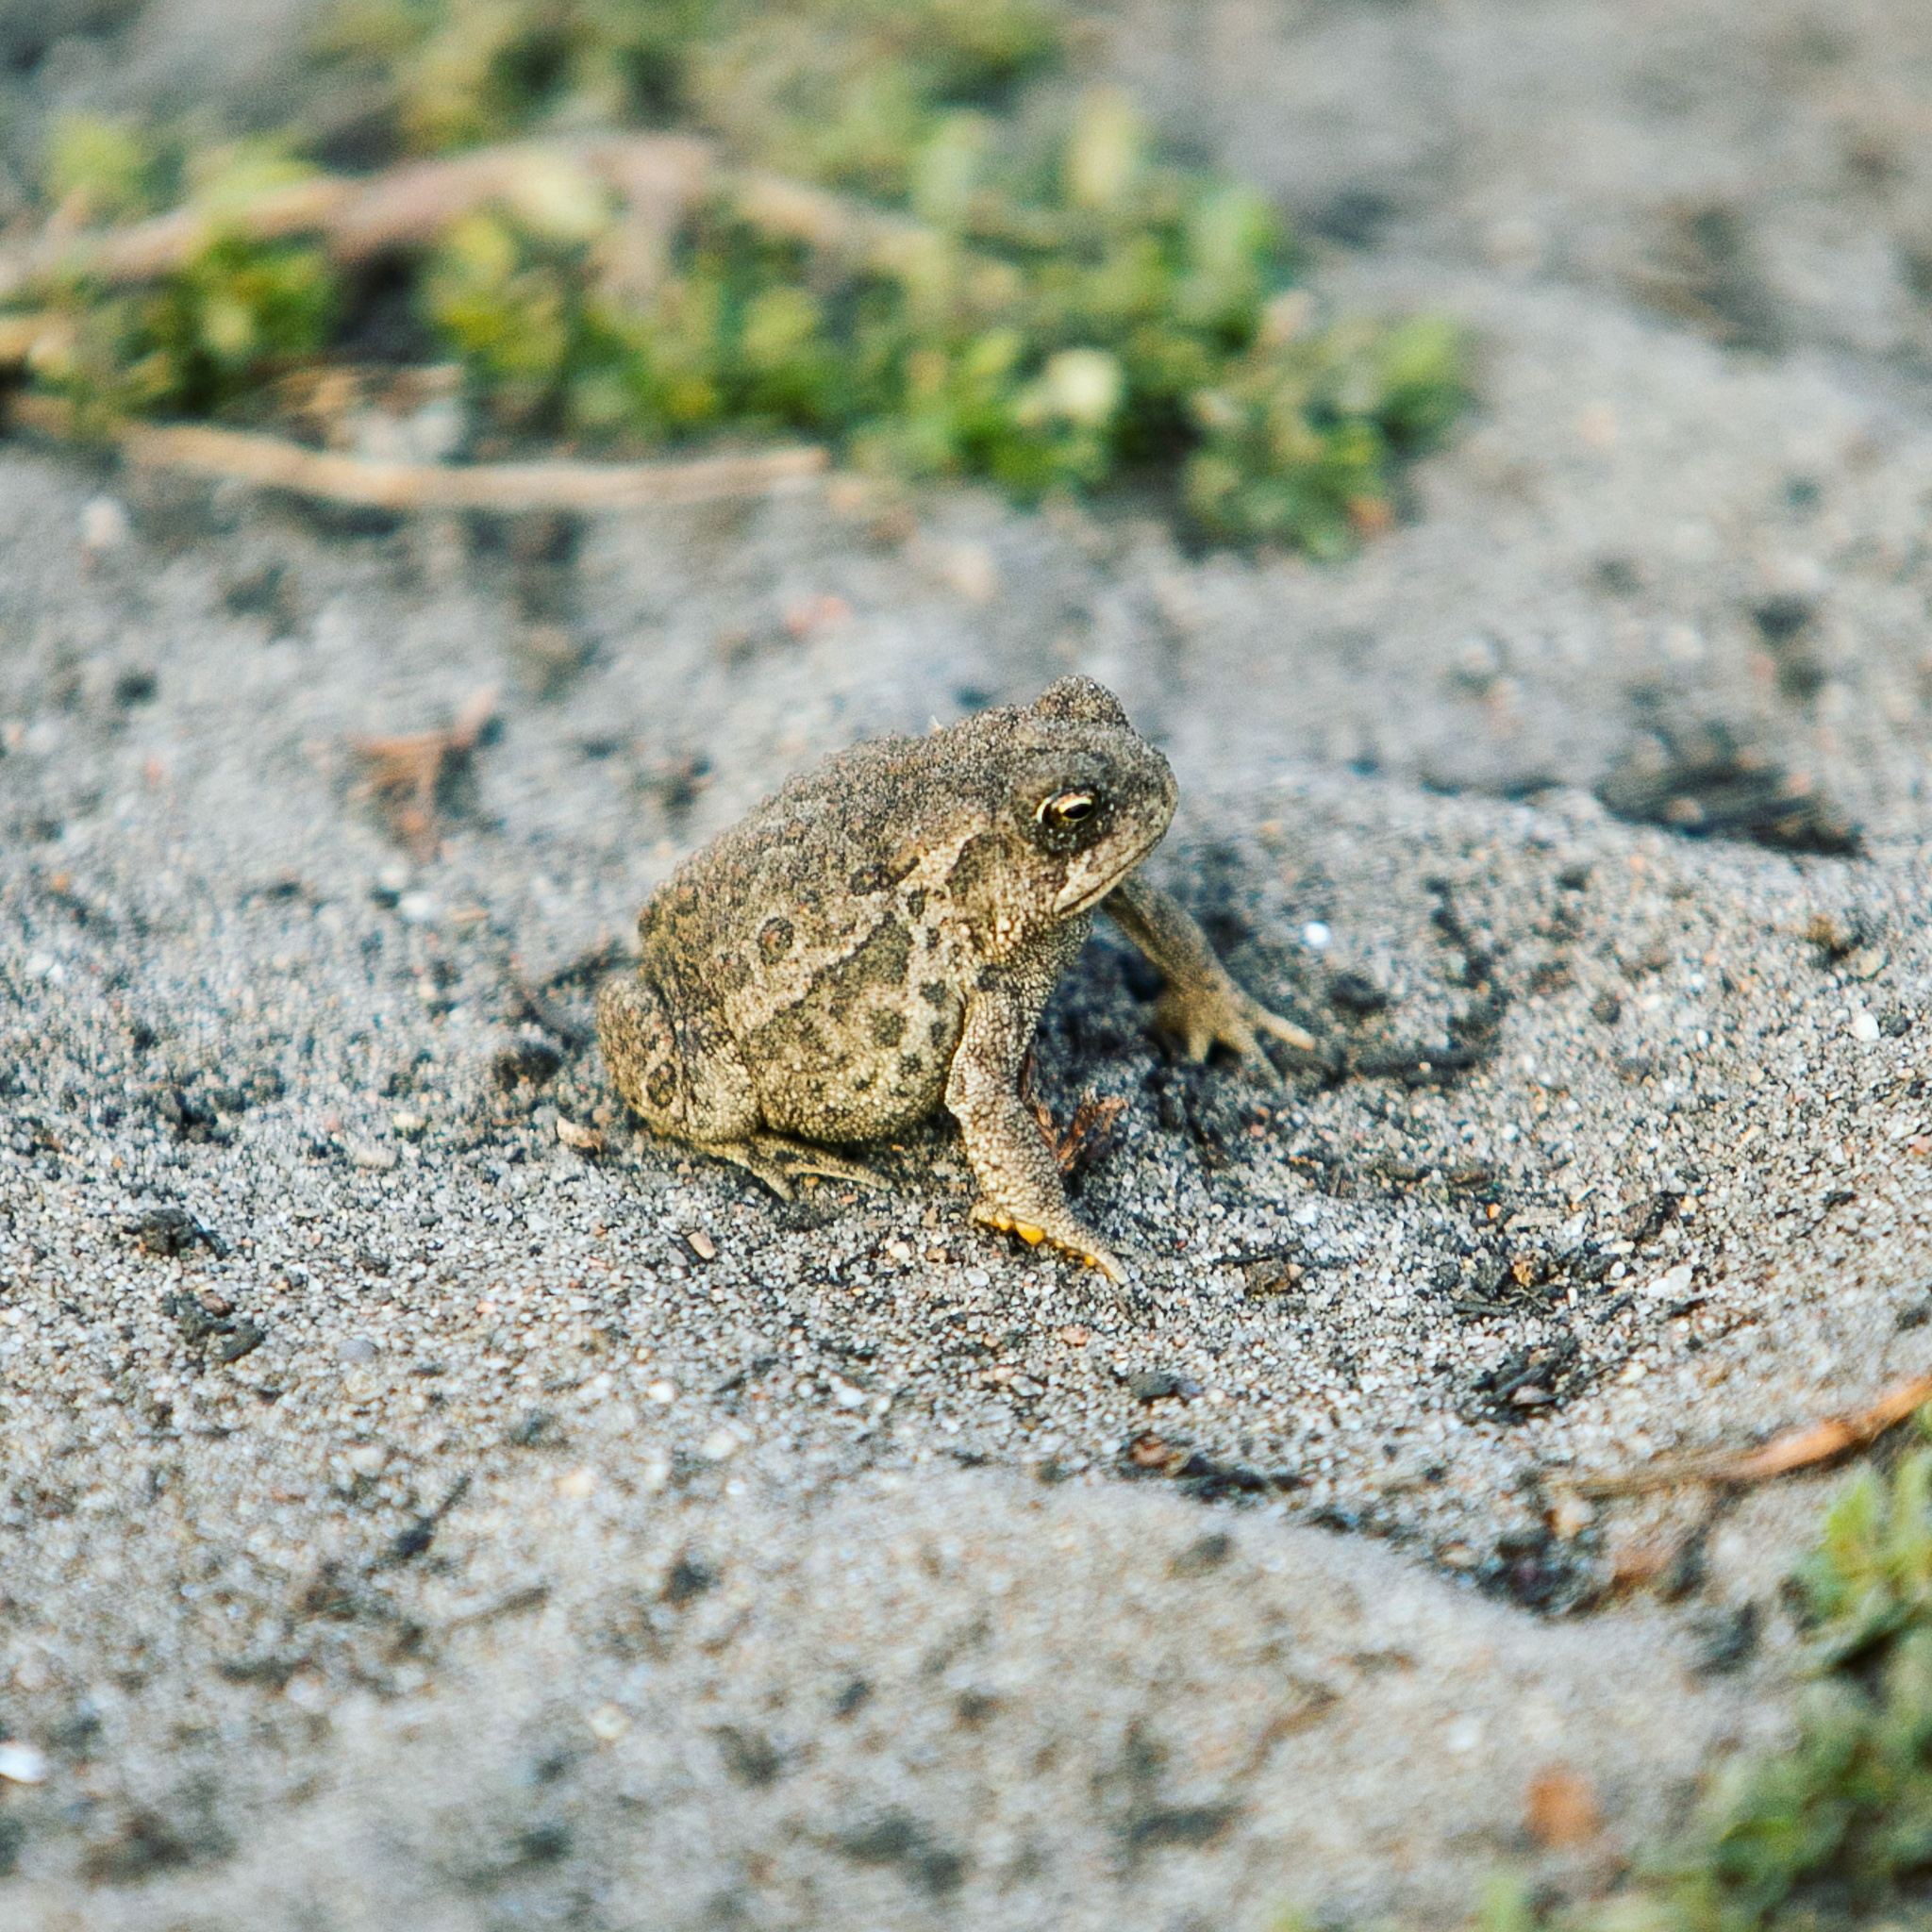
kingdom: Animalia
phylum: Chordata
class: Amphibia
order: Anura
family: Bufonidae
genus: Anaxyrus
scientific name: Anaxyrus hemiophrys
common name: Canadian toad
